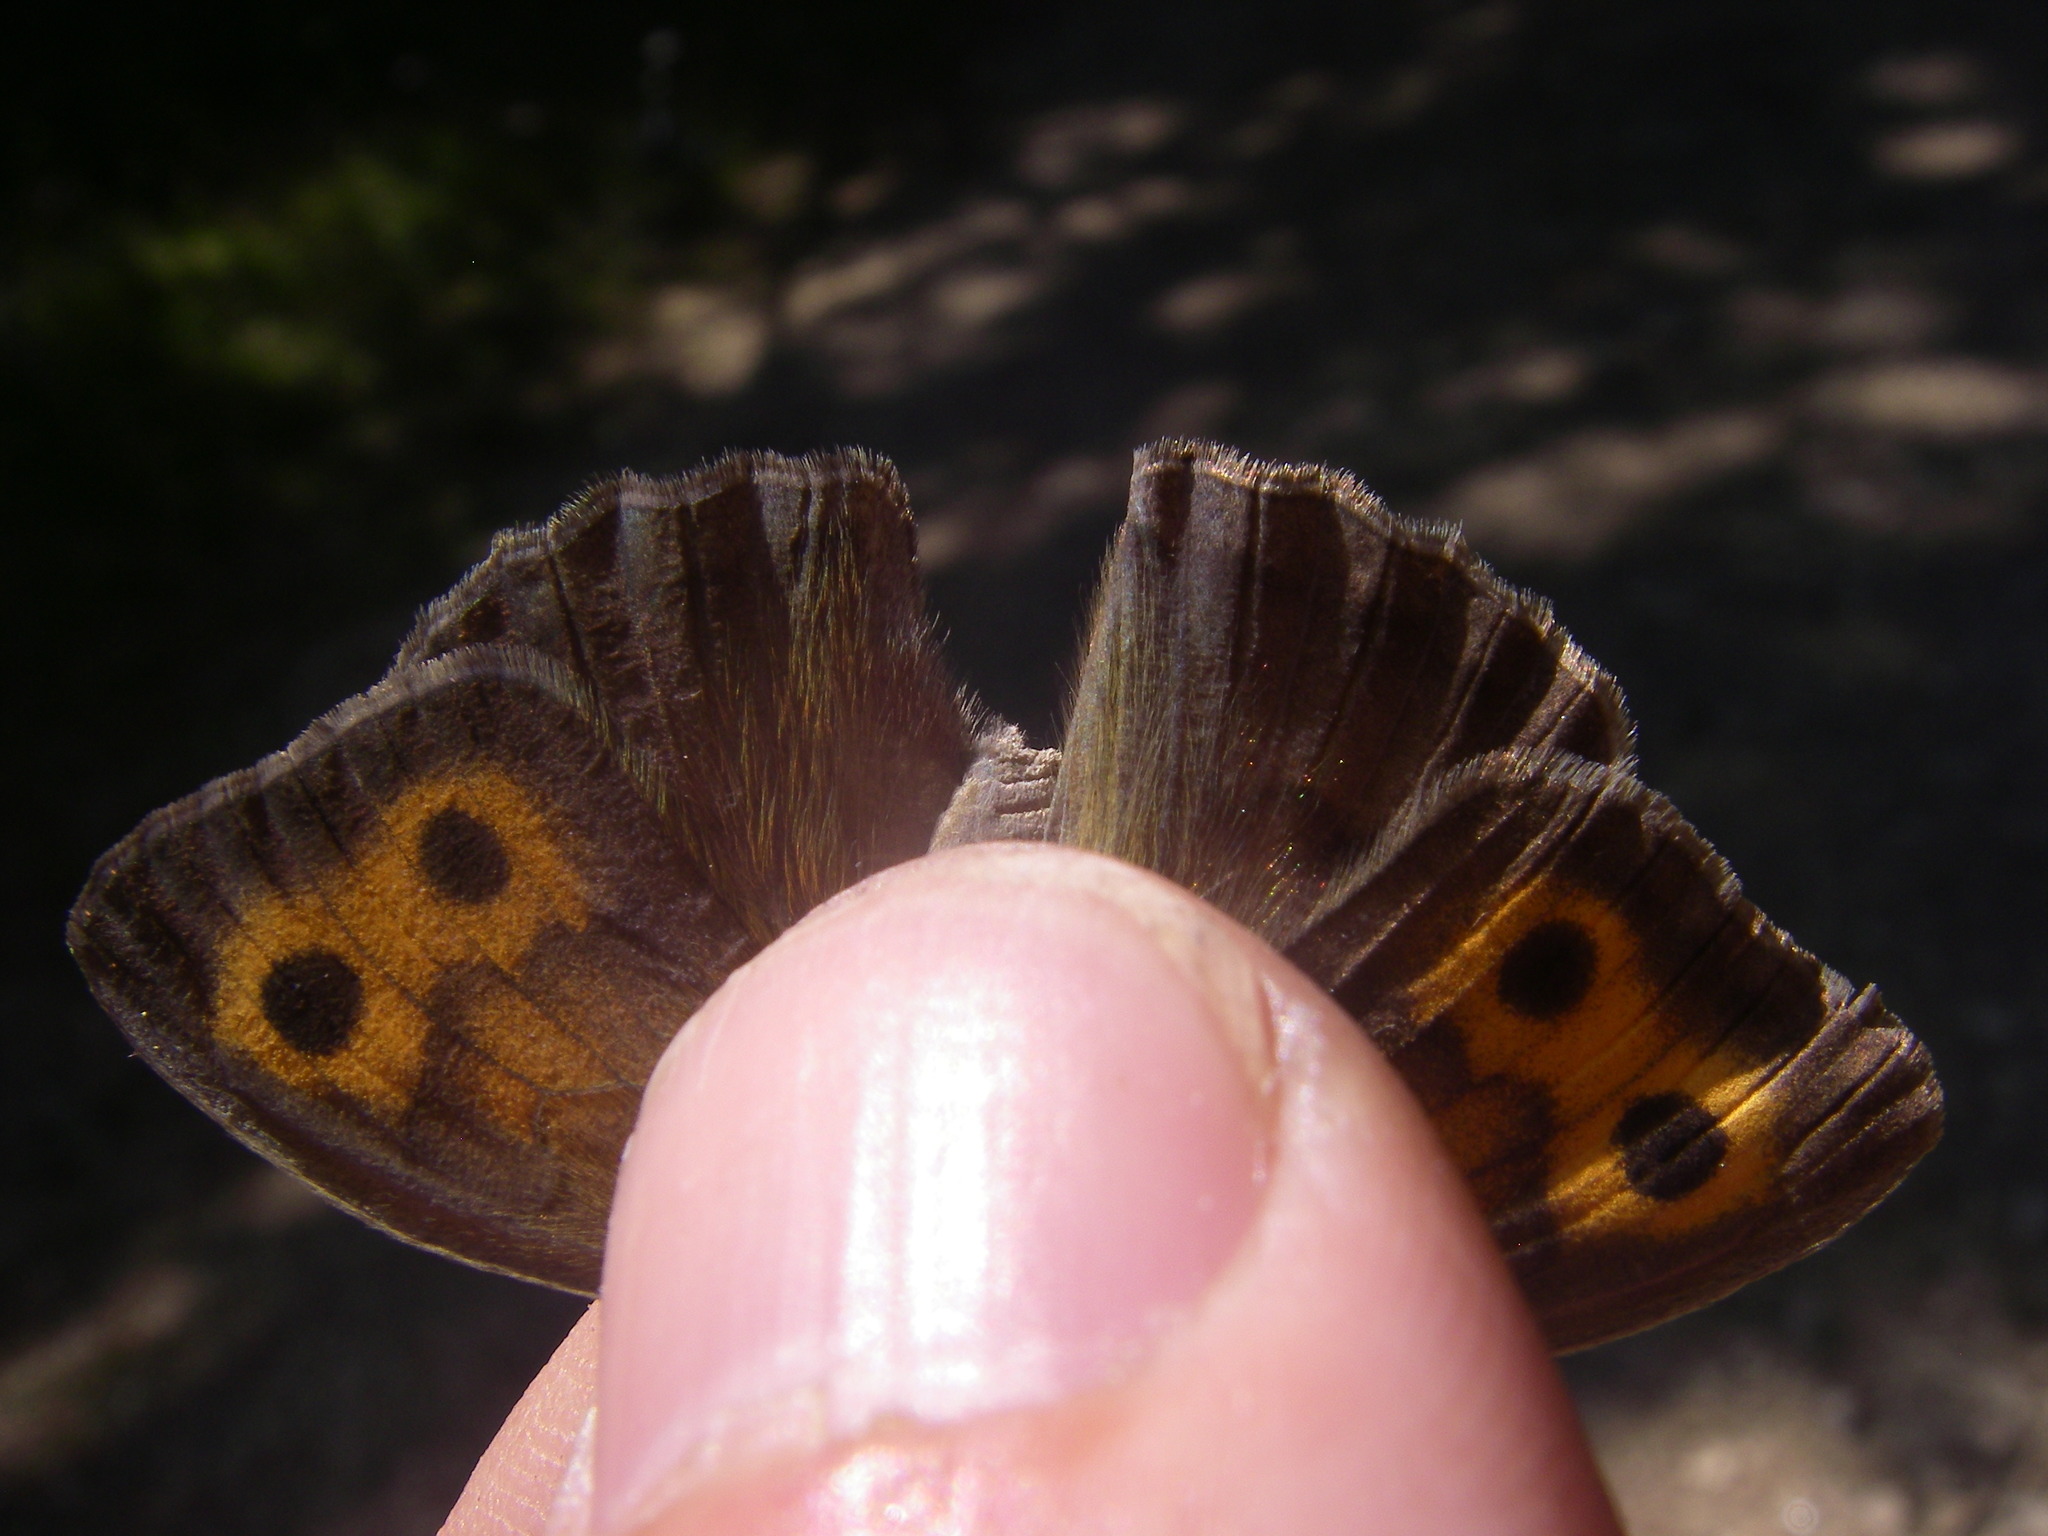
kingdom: Animalia
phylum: Arthropoda
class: Insecta
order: Lepidoptera
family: Nymphalidae
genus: Hyponephele
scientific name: Hyponephele lycaon
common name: Dusky meadow brown
